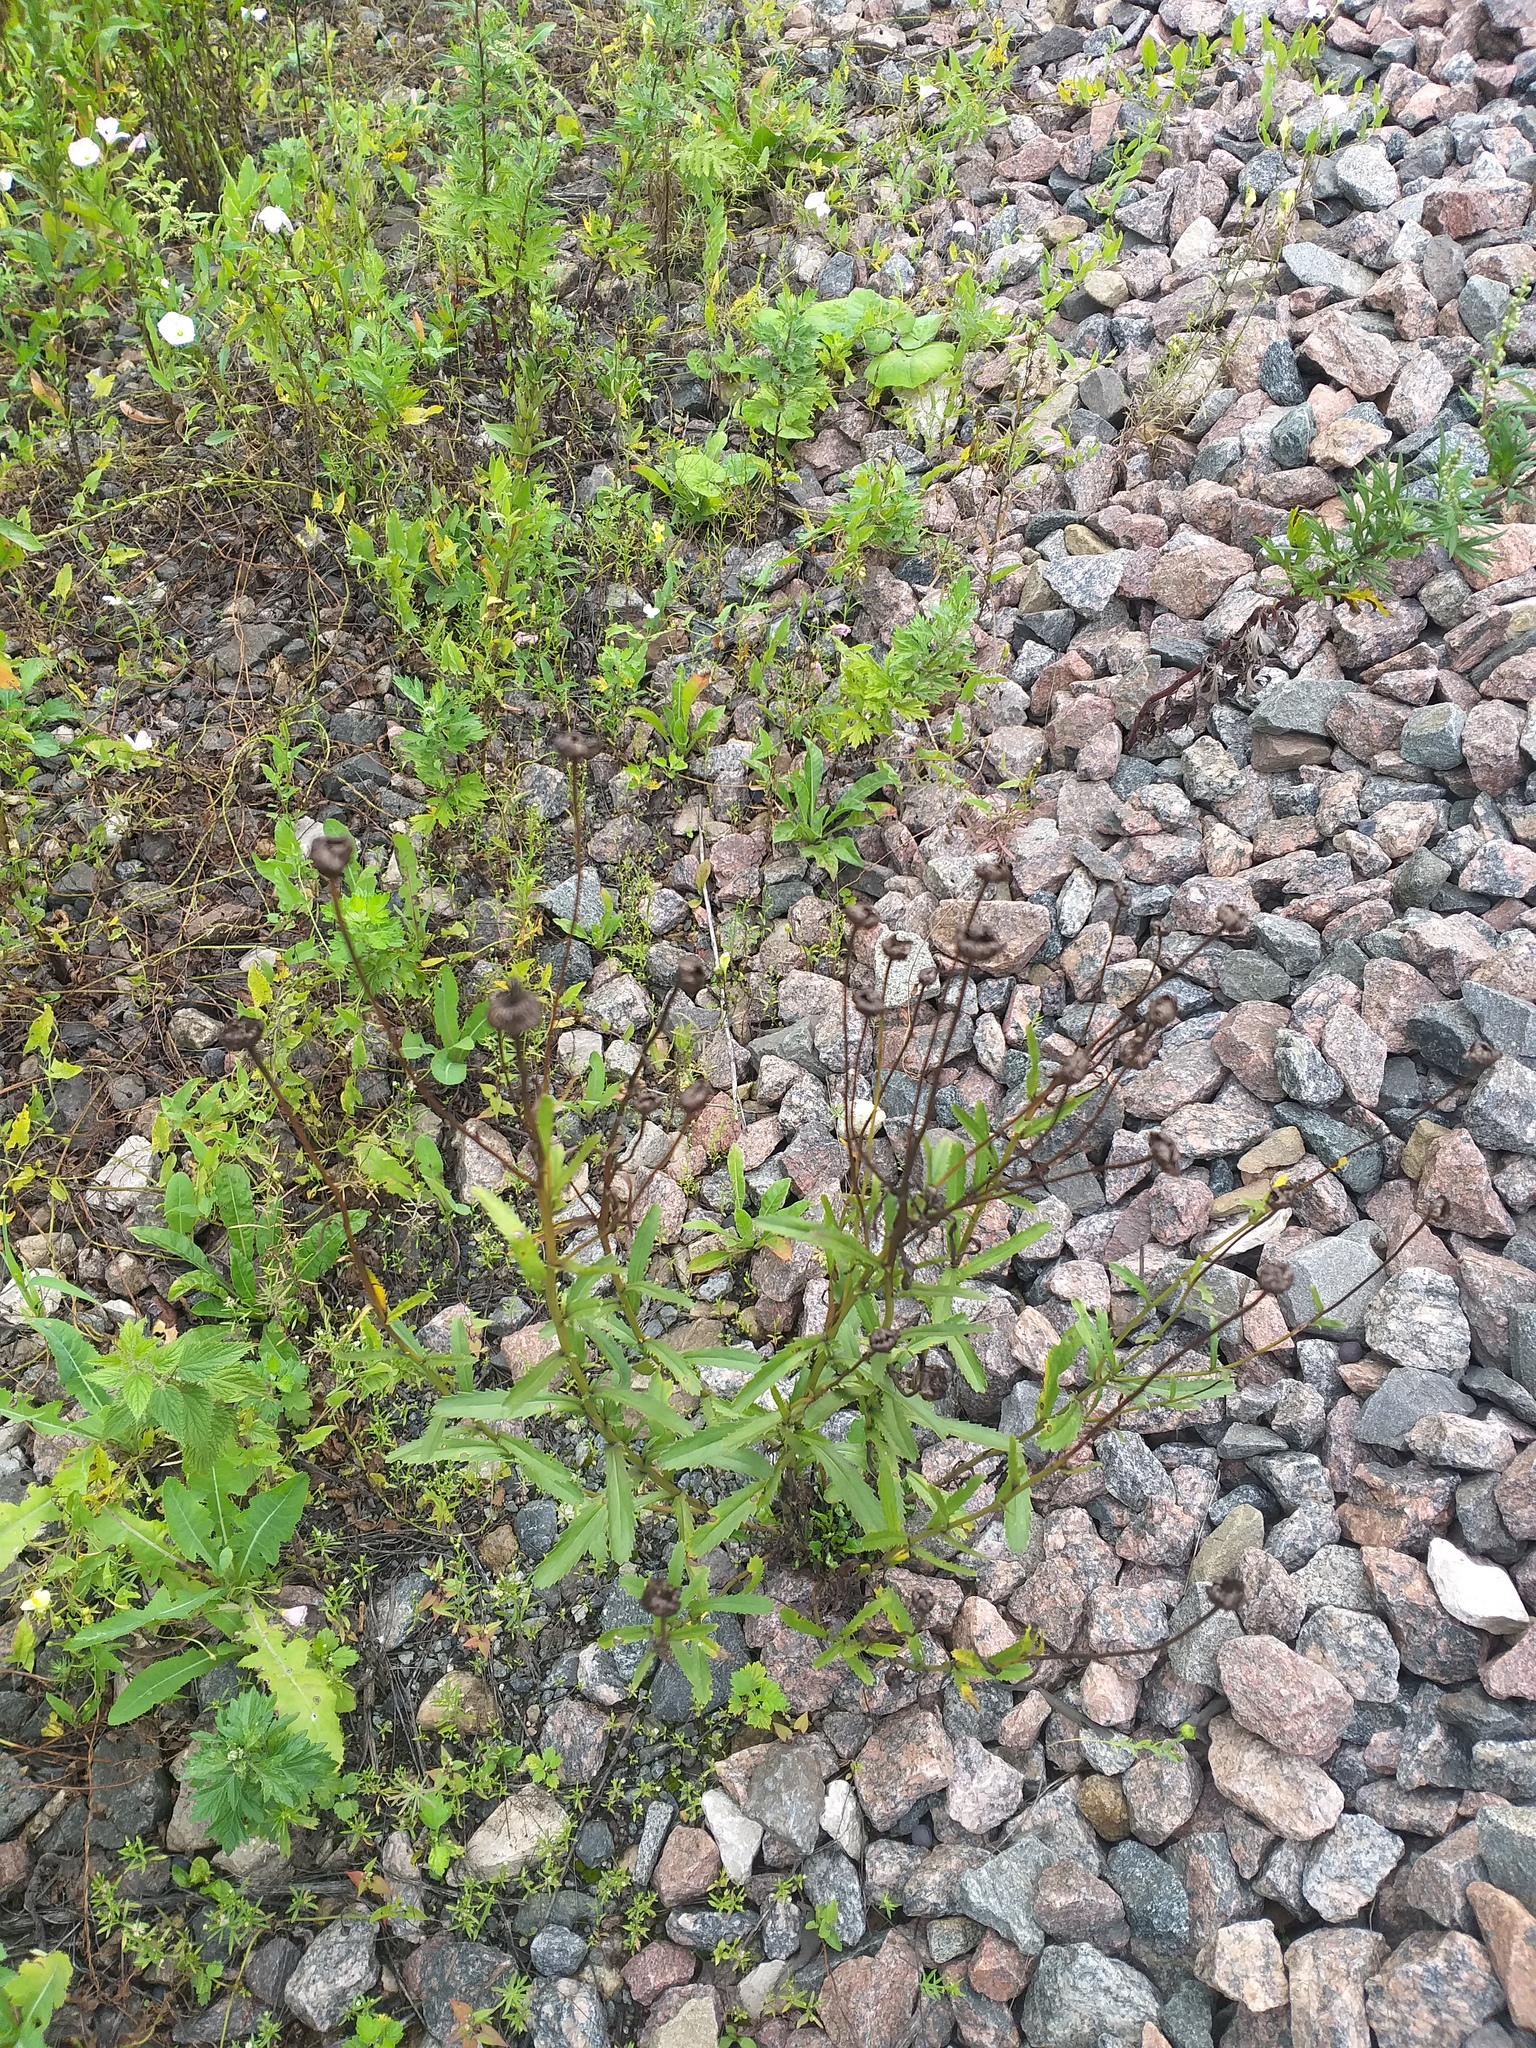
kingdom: Plantae
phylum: Tracheophyta
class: Magnoliopsida
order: Asterales
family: Asteraceae
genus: Leucanthemum
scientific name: Leucanthemum vulgare
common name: Oxeye daisy
